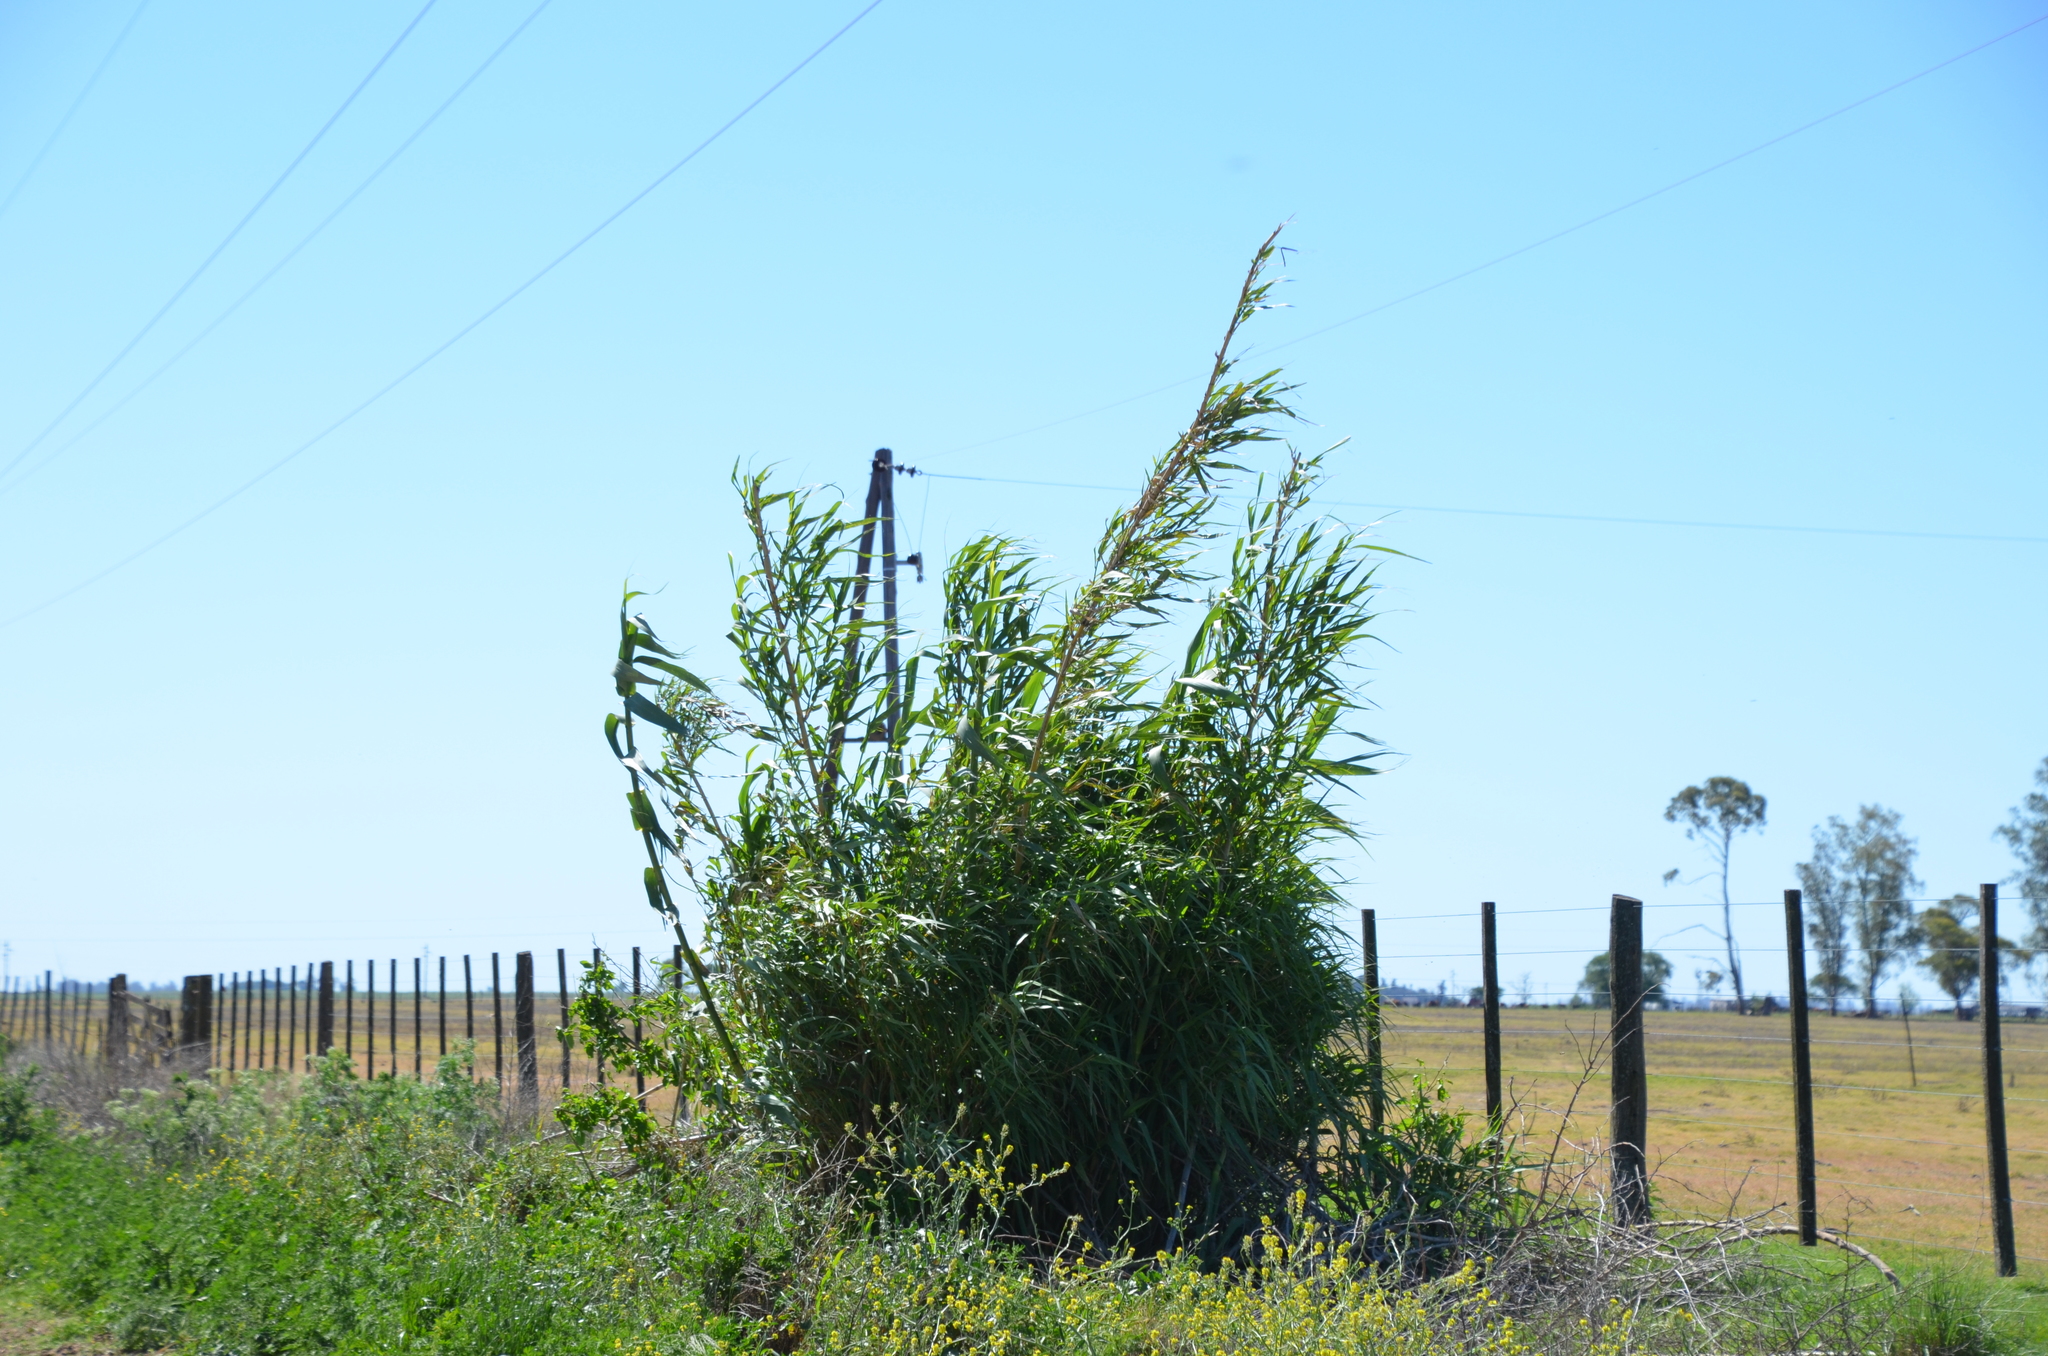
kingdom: Plantae
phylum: Tracheophyta
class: Liliopsida
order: Poales
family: Poaceae
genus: Arundo
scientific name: Arundo donax
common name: Giant reed
